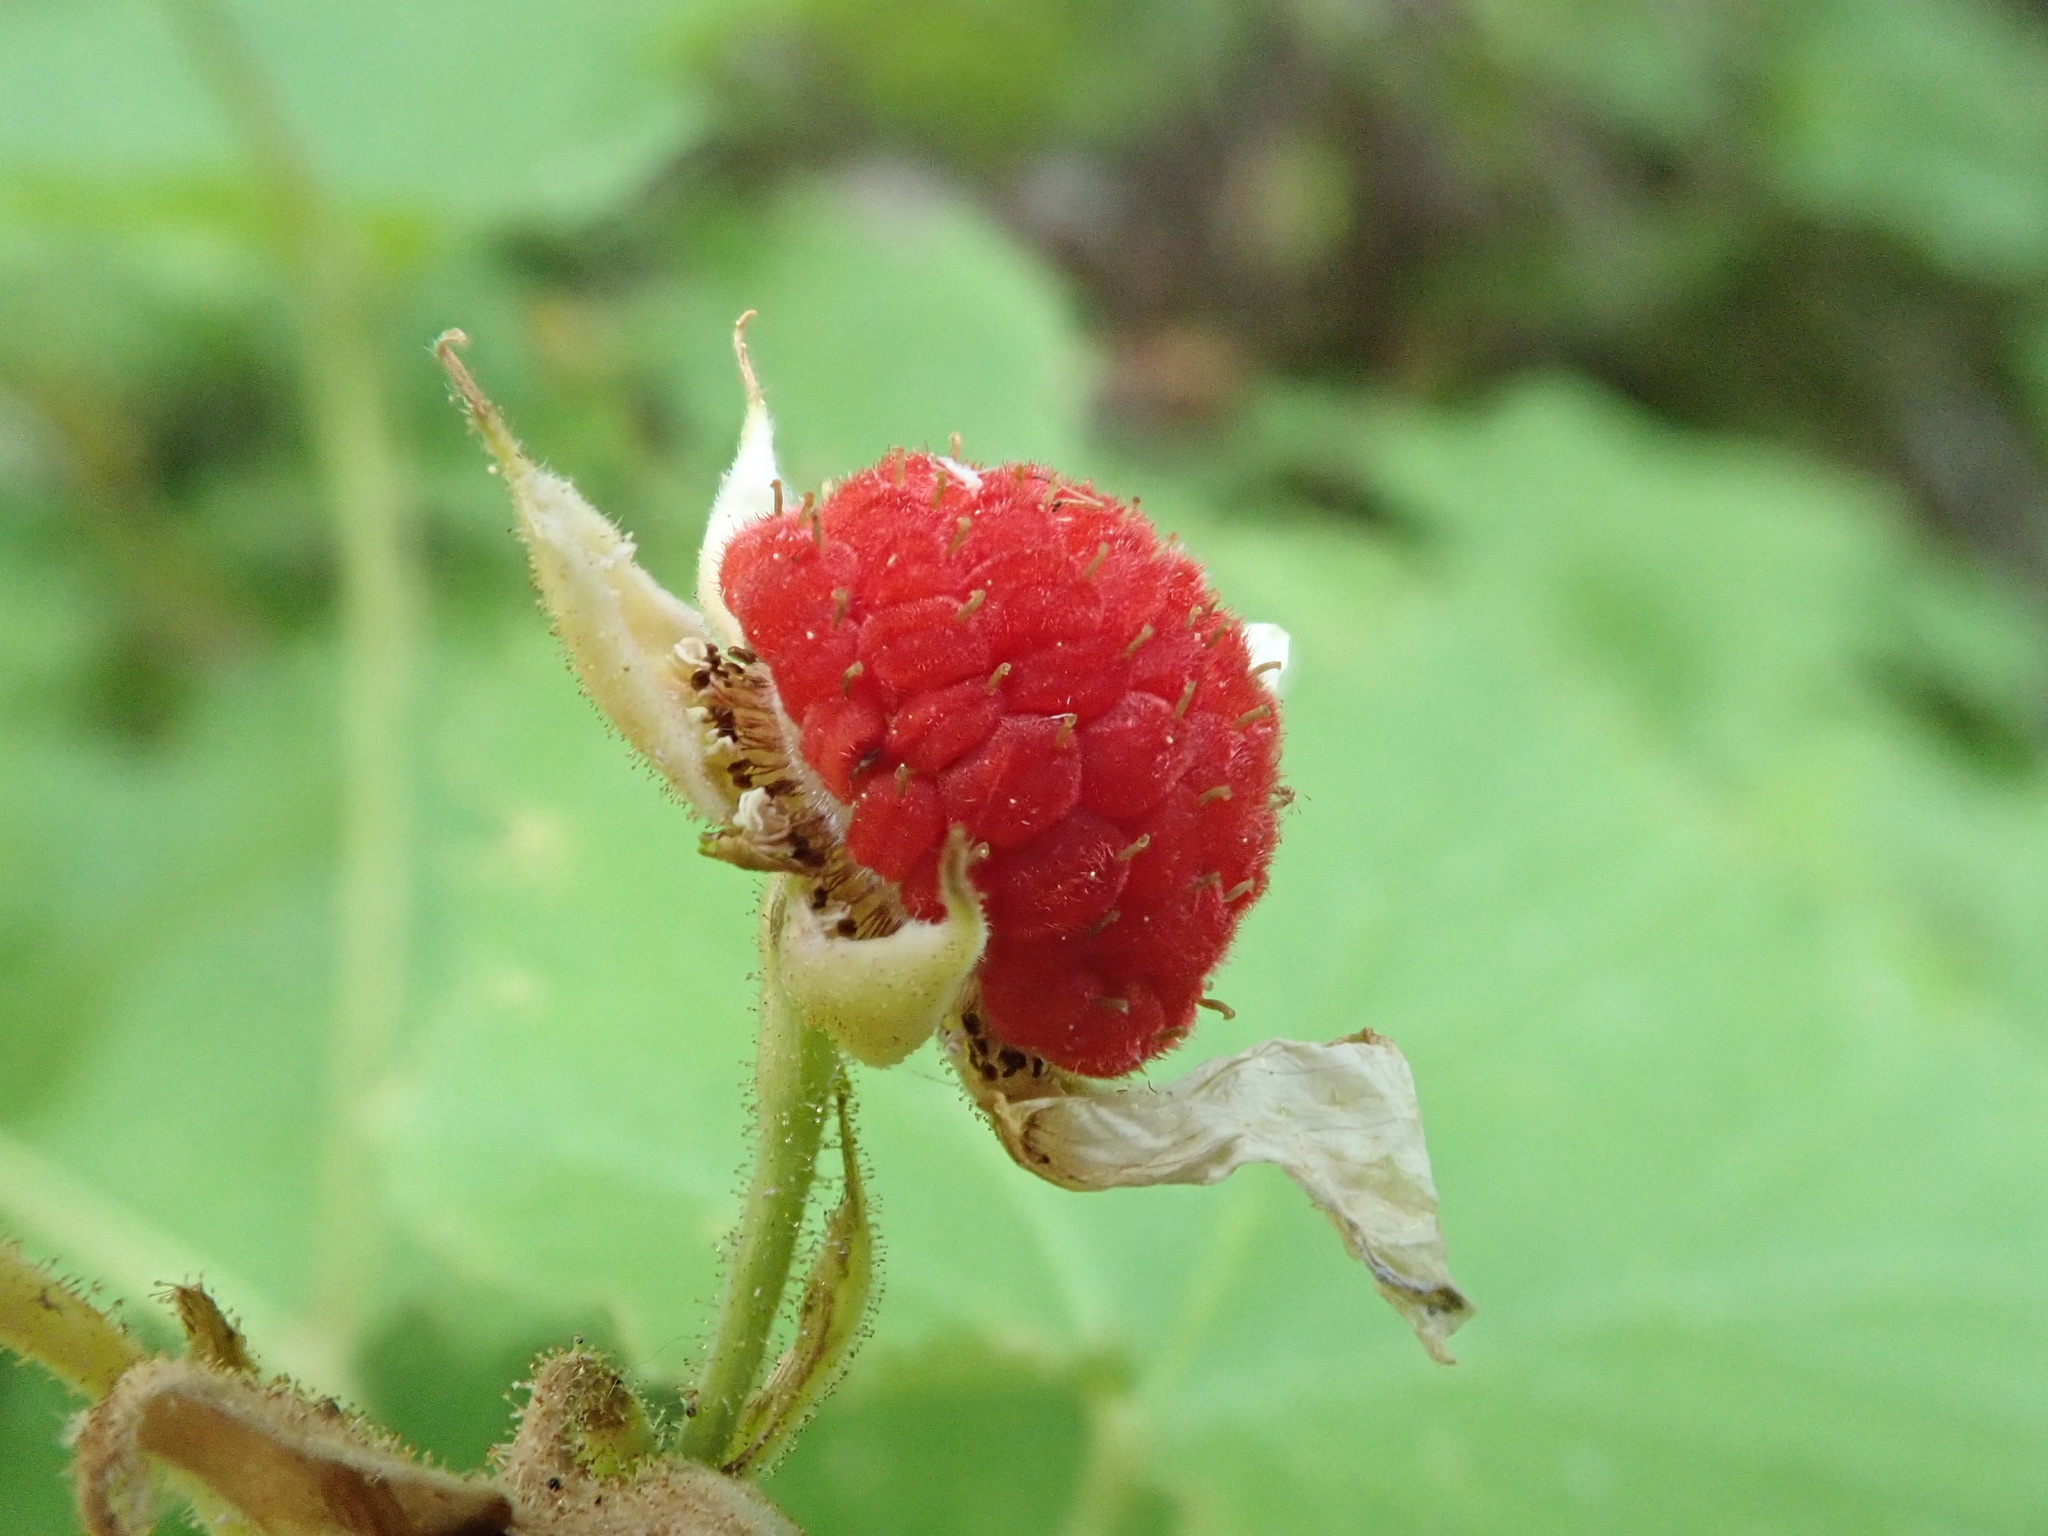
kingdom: Plantae
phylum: Tracheophyta
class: Magnoliopsida
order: Rosales
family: Rosaceae
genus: Rubus
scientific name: Rubus parviflorus
